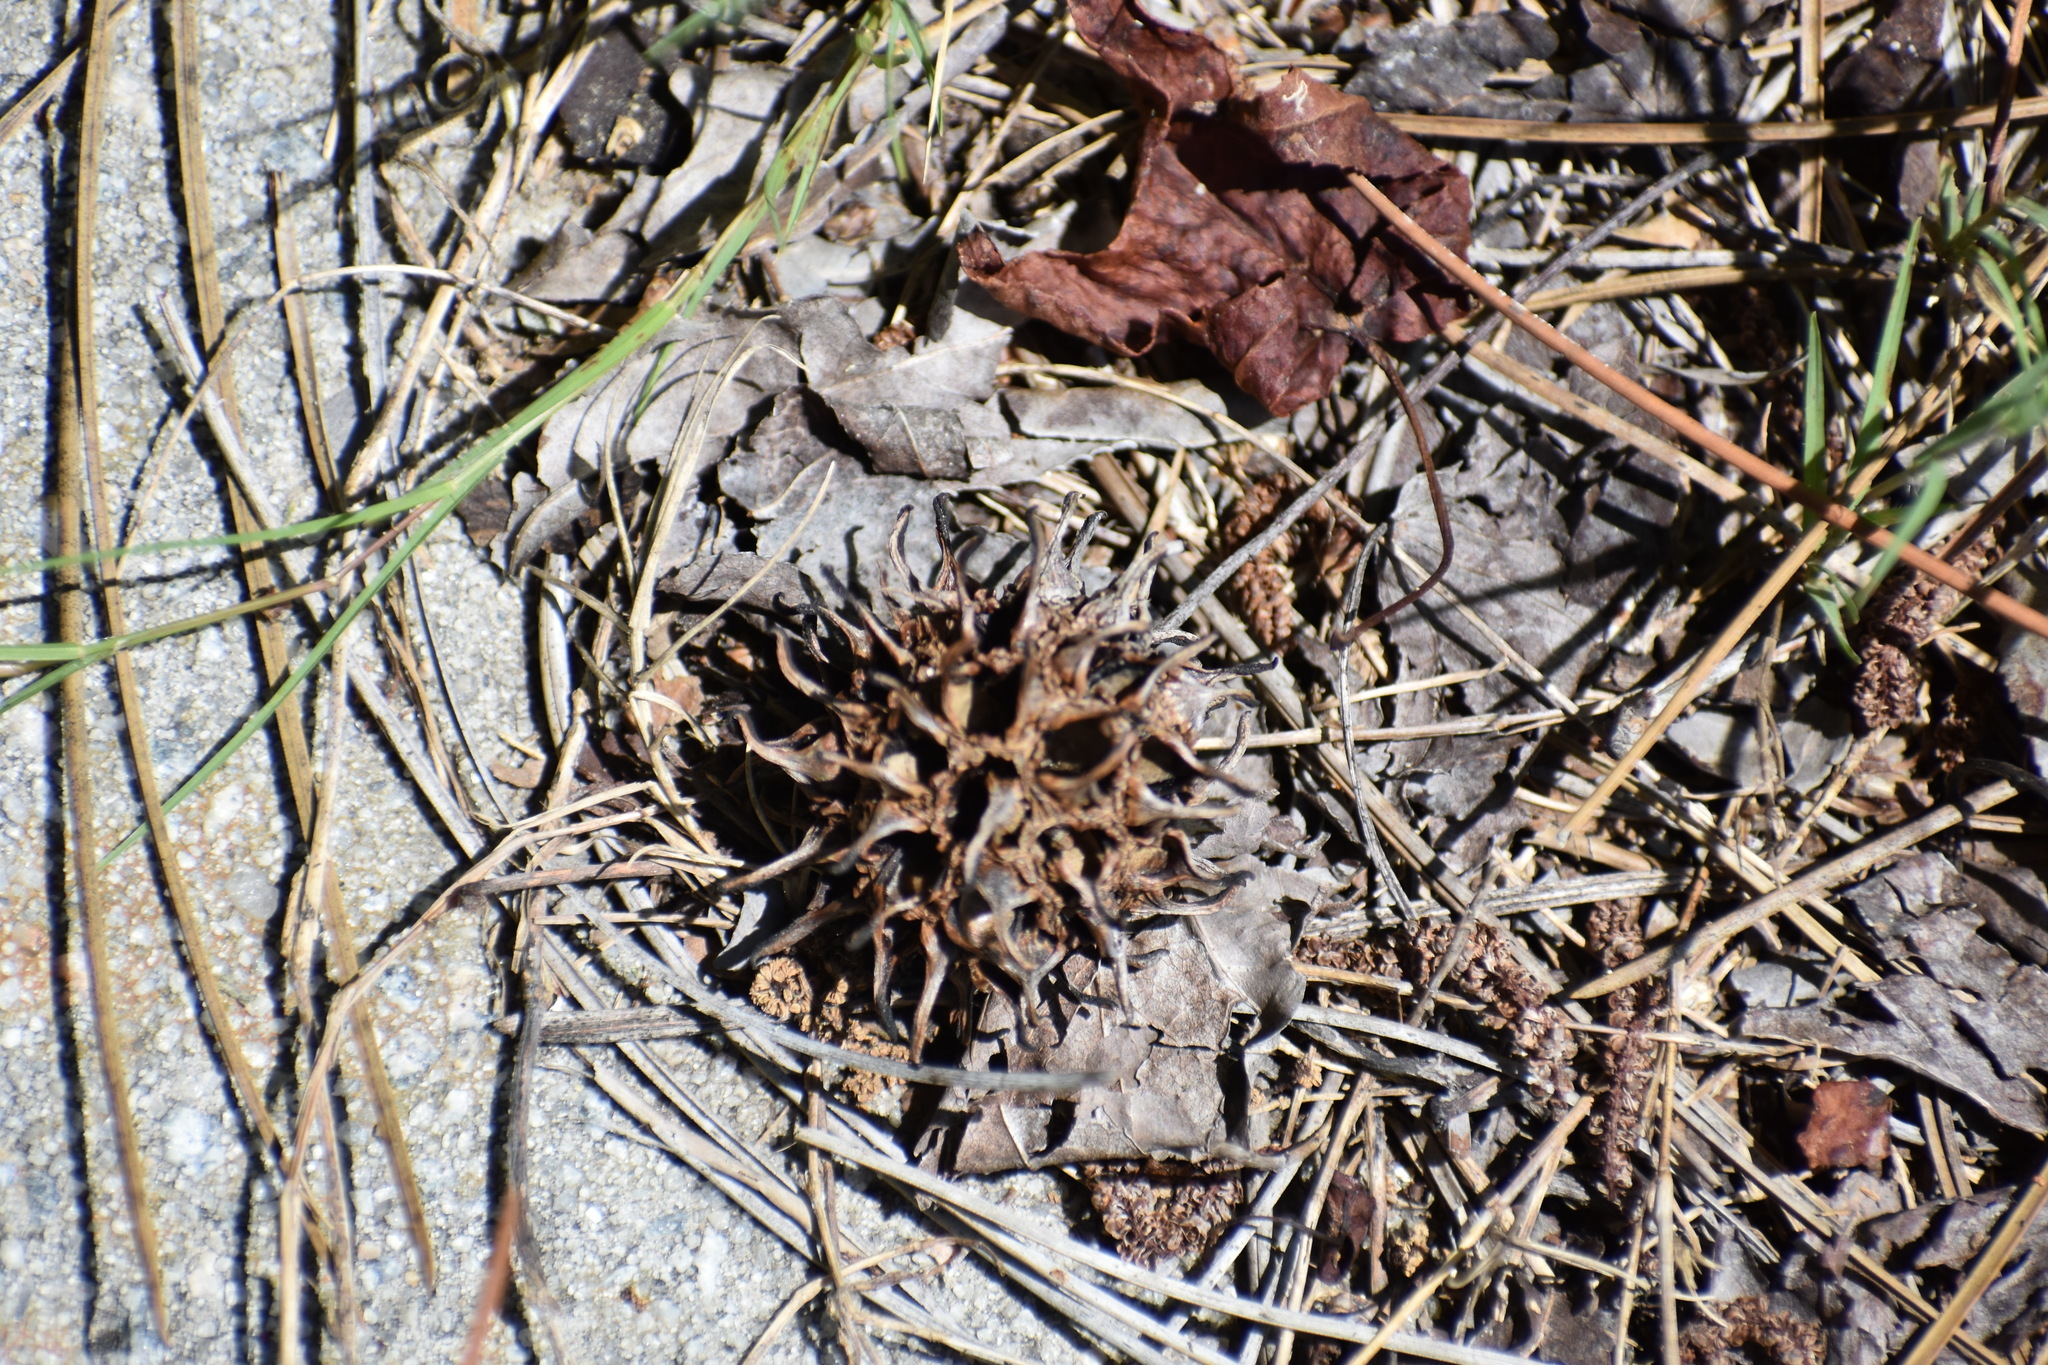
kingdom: Plantae
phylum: Tracheophyta
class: Magnoliopsida
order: Saxifragales
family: Altingiaceae
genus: Liquidambar
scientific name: Liquidambar styraciflua
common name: Sweet gum
